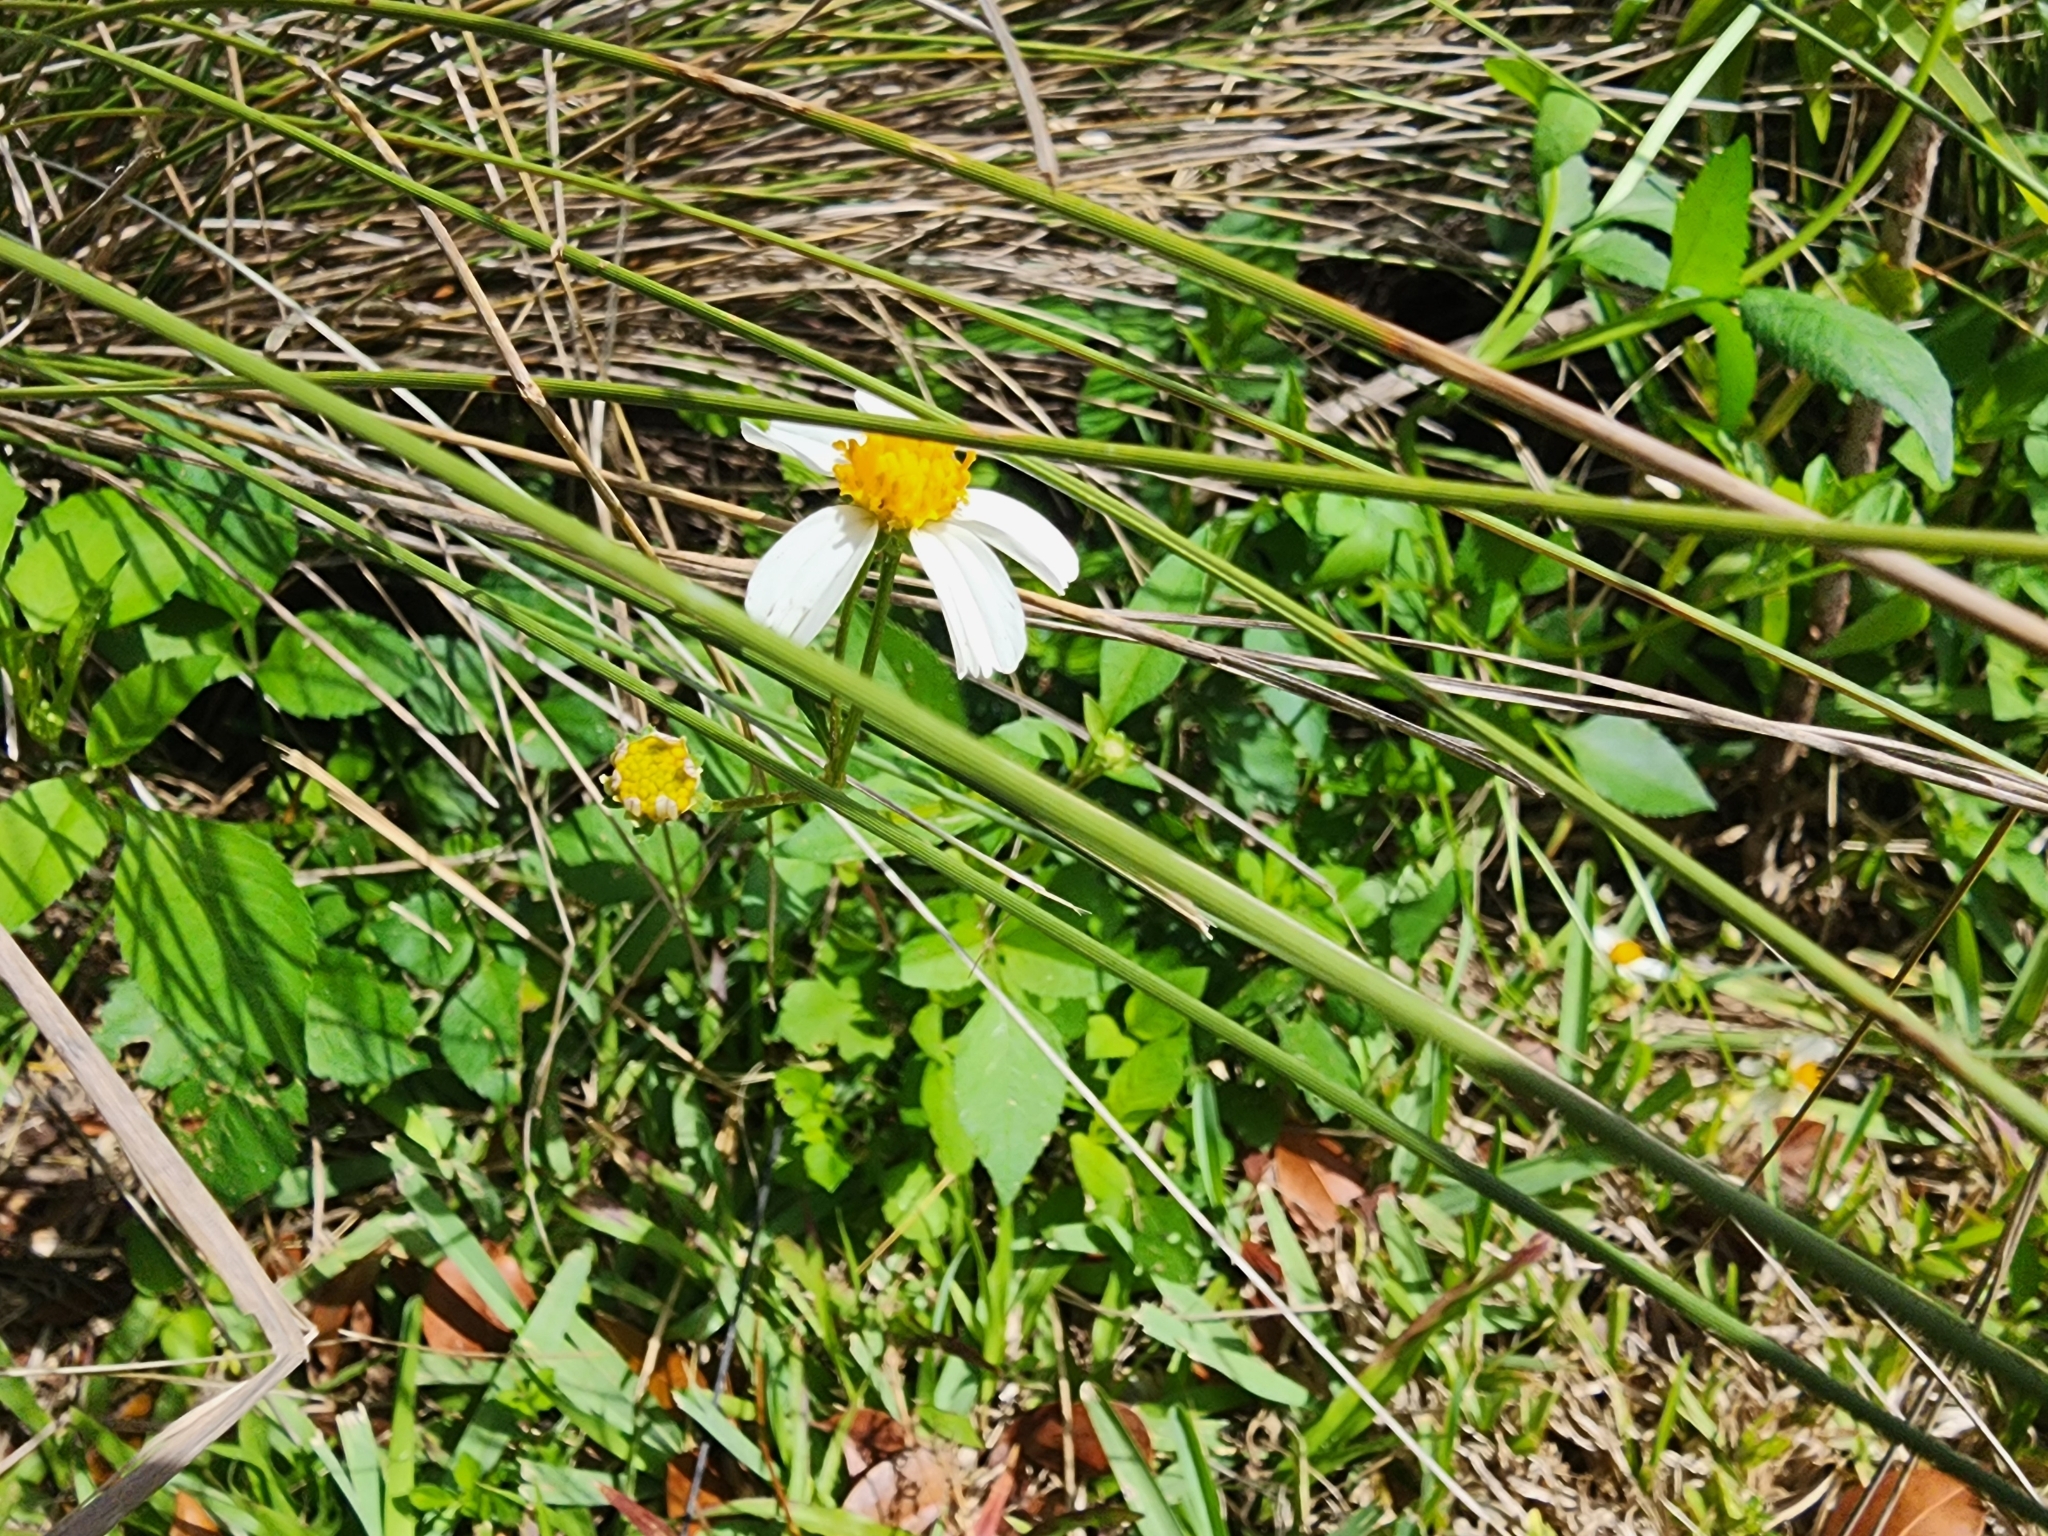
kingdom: Plantae
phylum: Tracheophyta
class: Magnoliopsida
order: Asterales
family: Asteraceae
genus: Bidens
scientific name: Bidens alba
